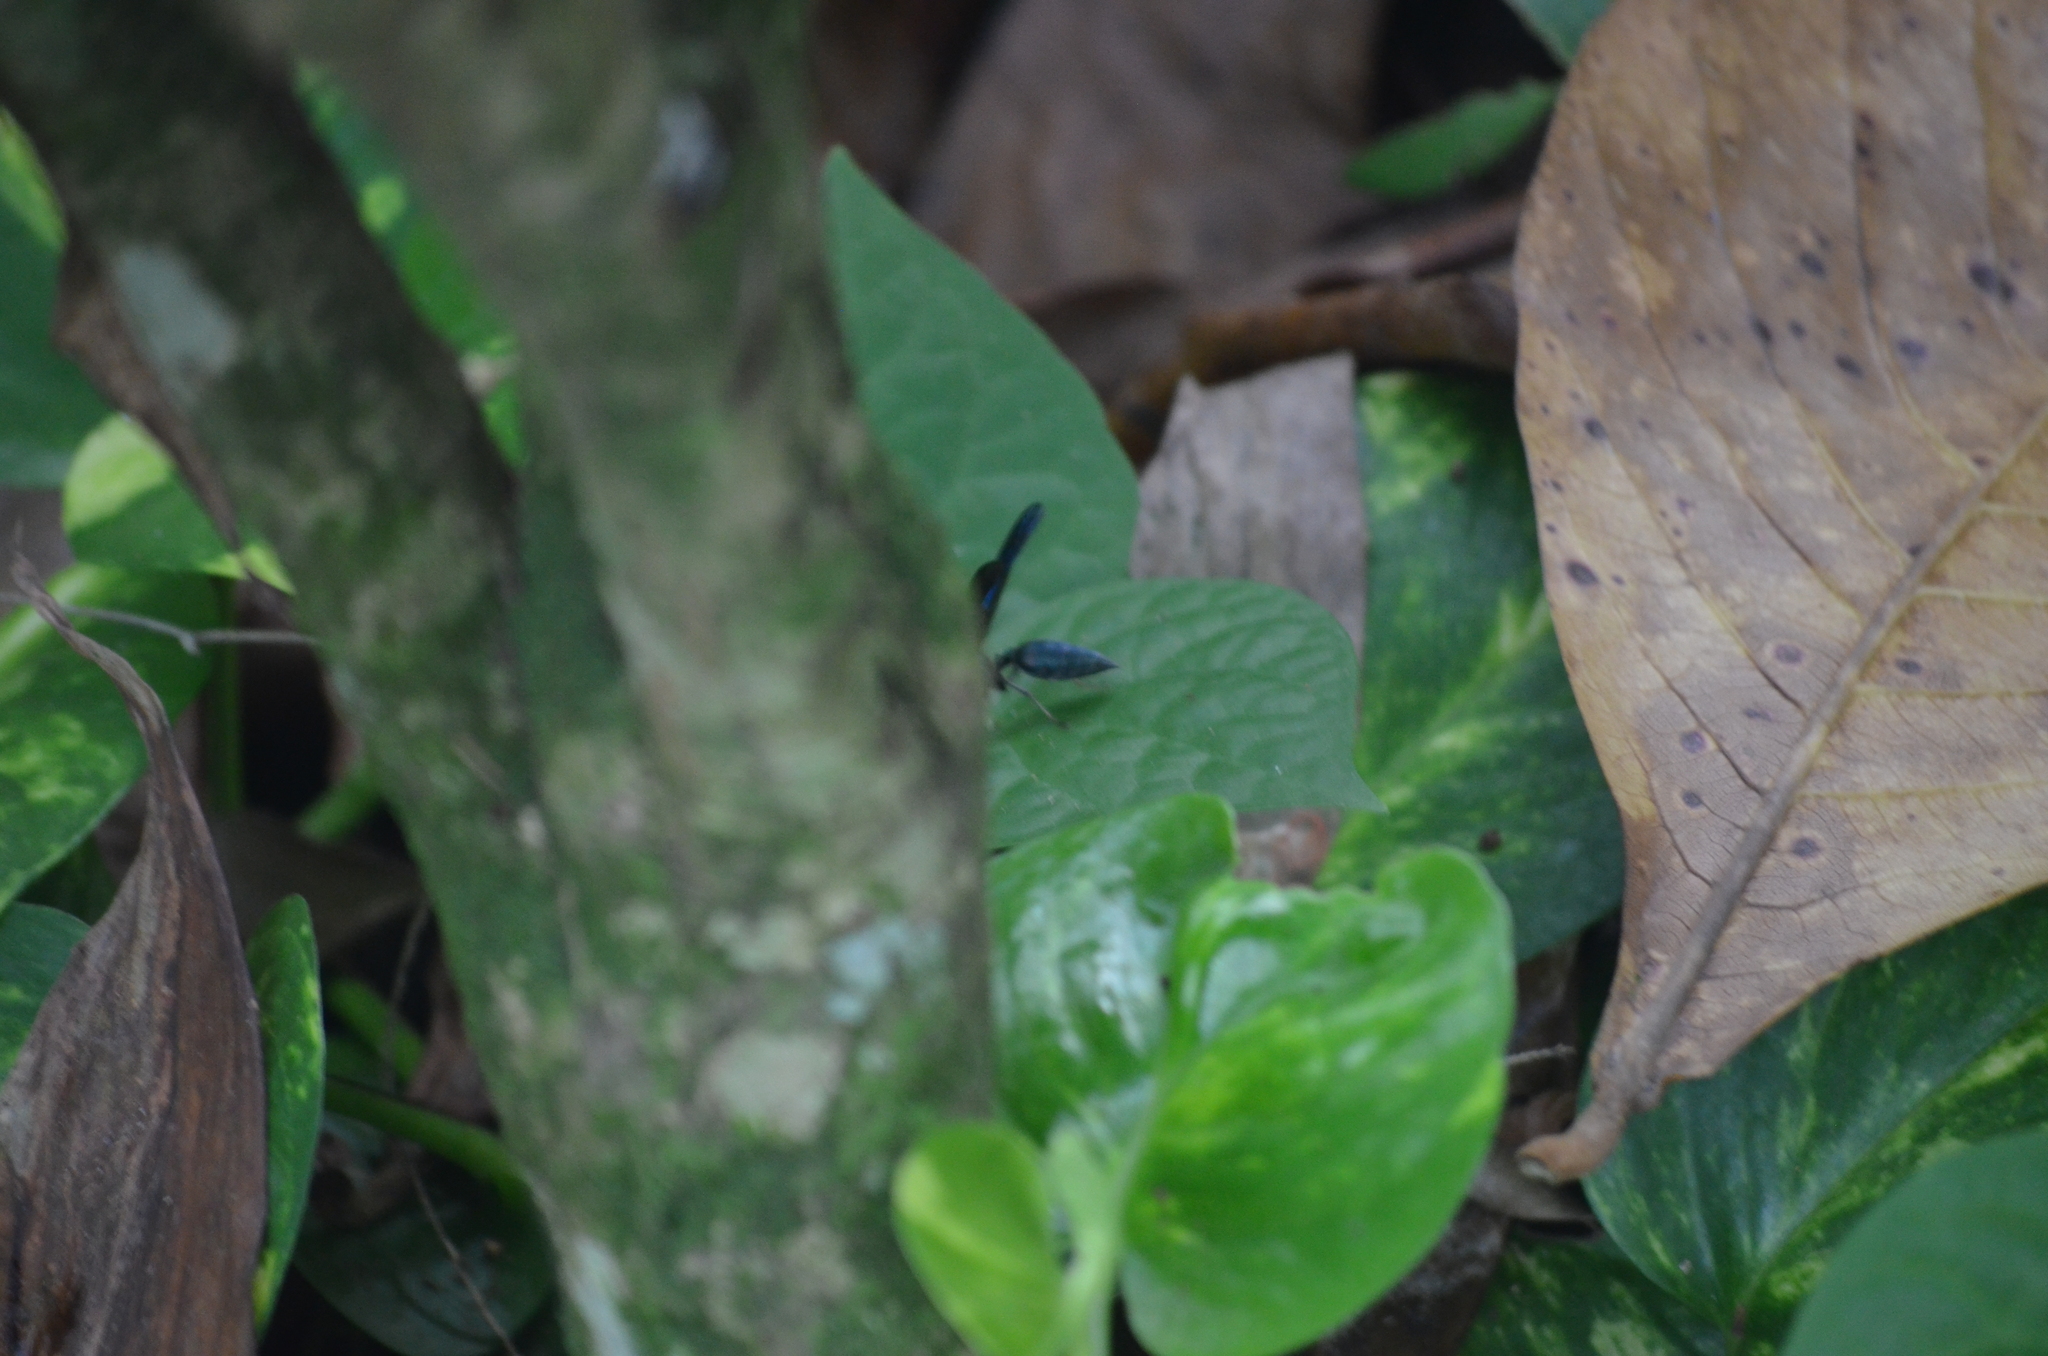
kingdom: Animalia
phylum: Arthropoda
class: Insecta
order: Hymenoptera
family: Vespidae
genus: Synoeca
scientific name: Synoeca septentrionalis
